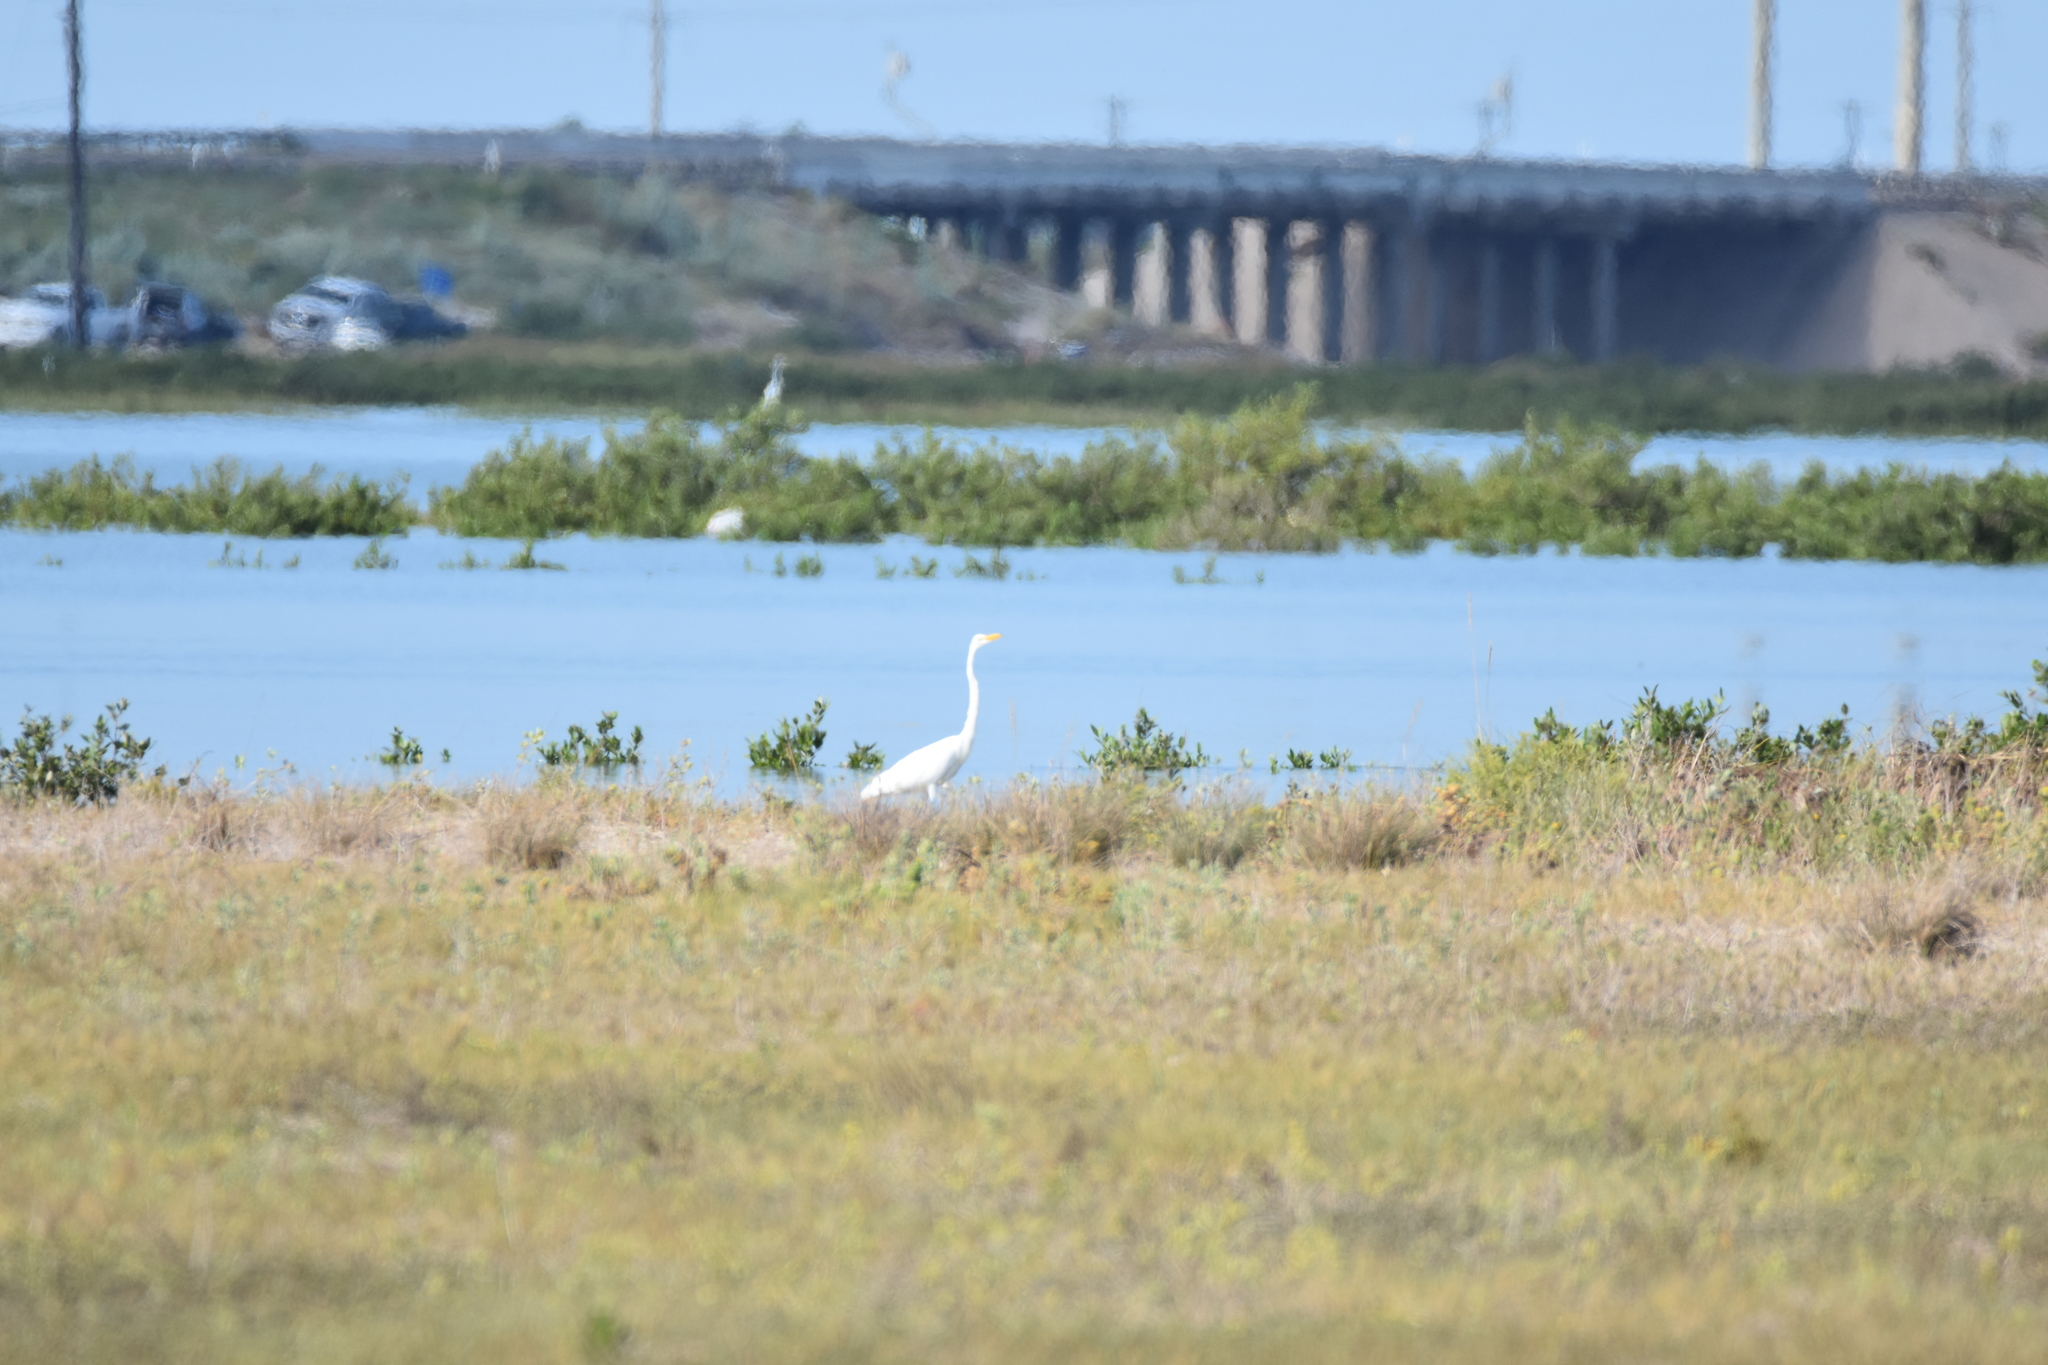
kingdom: Animalia
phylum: Chordata
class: Aves
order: Pelecaniformes
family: Ardeidae
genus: Ardea
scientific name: Ardea alba
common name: Great egret
